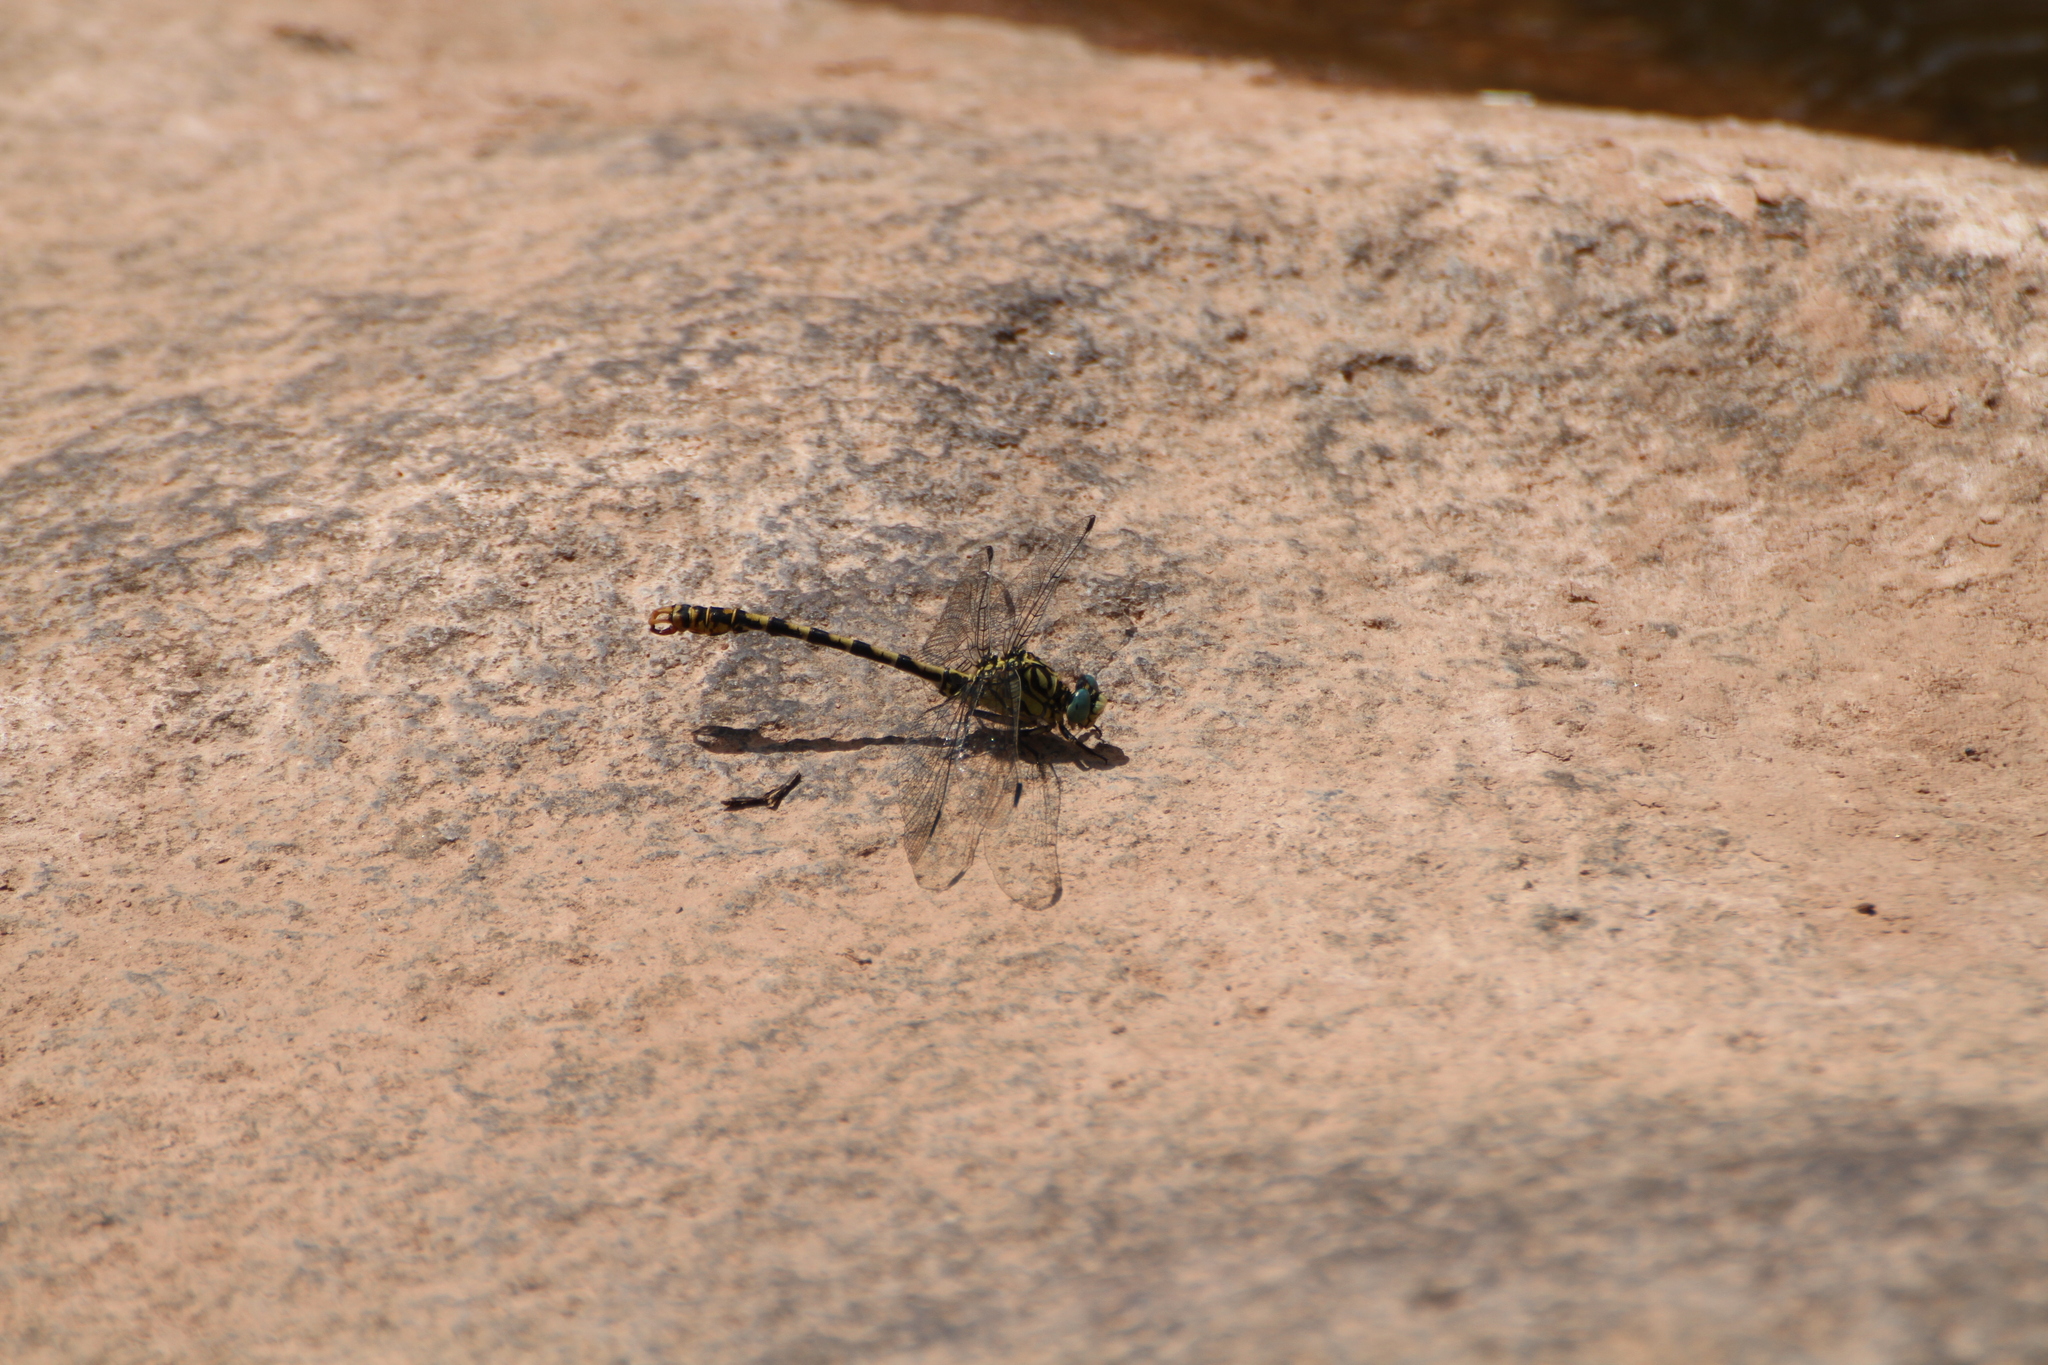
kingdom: Animalia
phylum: Arthropoda
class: Insecta
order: Odonata
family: Gomphidae
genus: Onychogomphus
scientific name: Onychogomphus forcipatus
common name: Small pincertail
